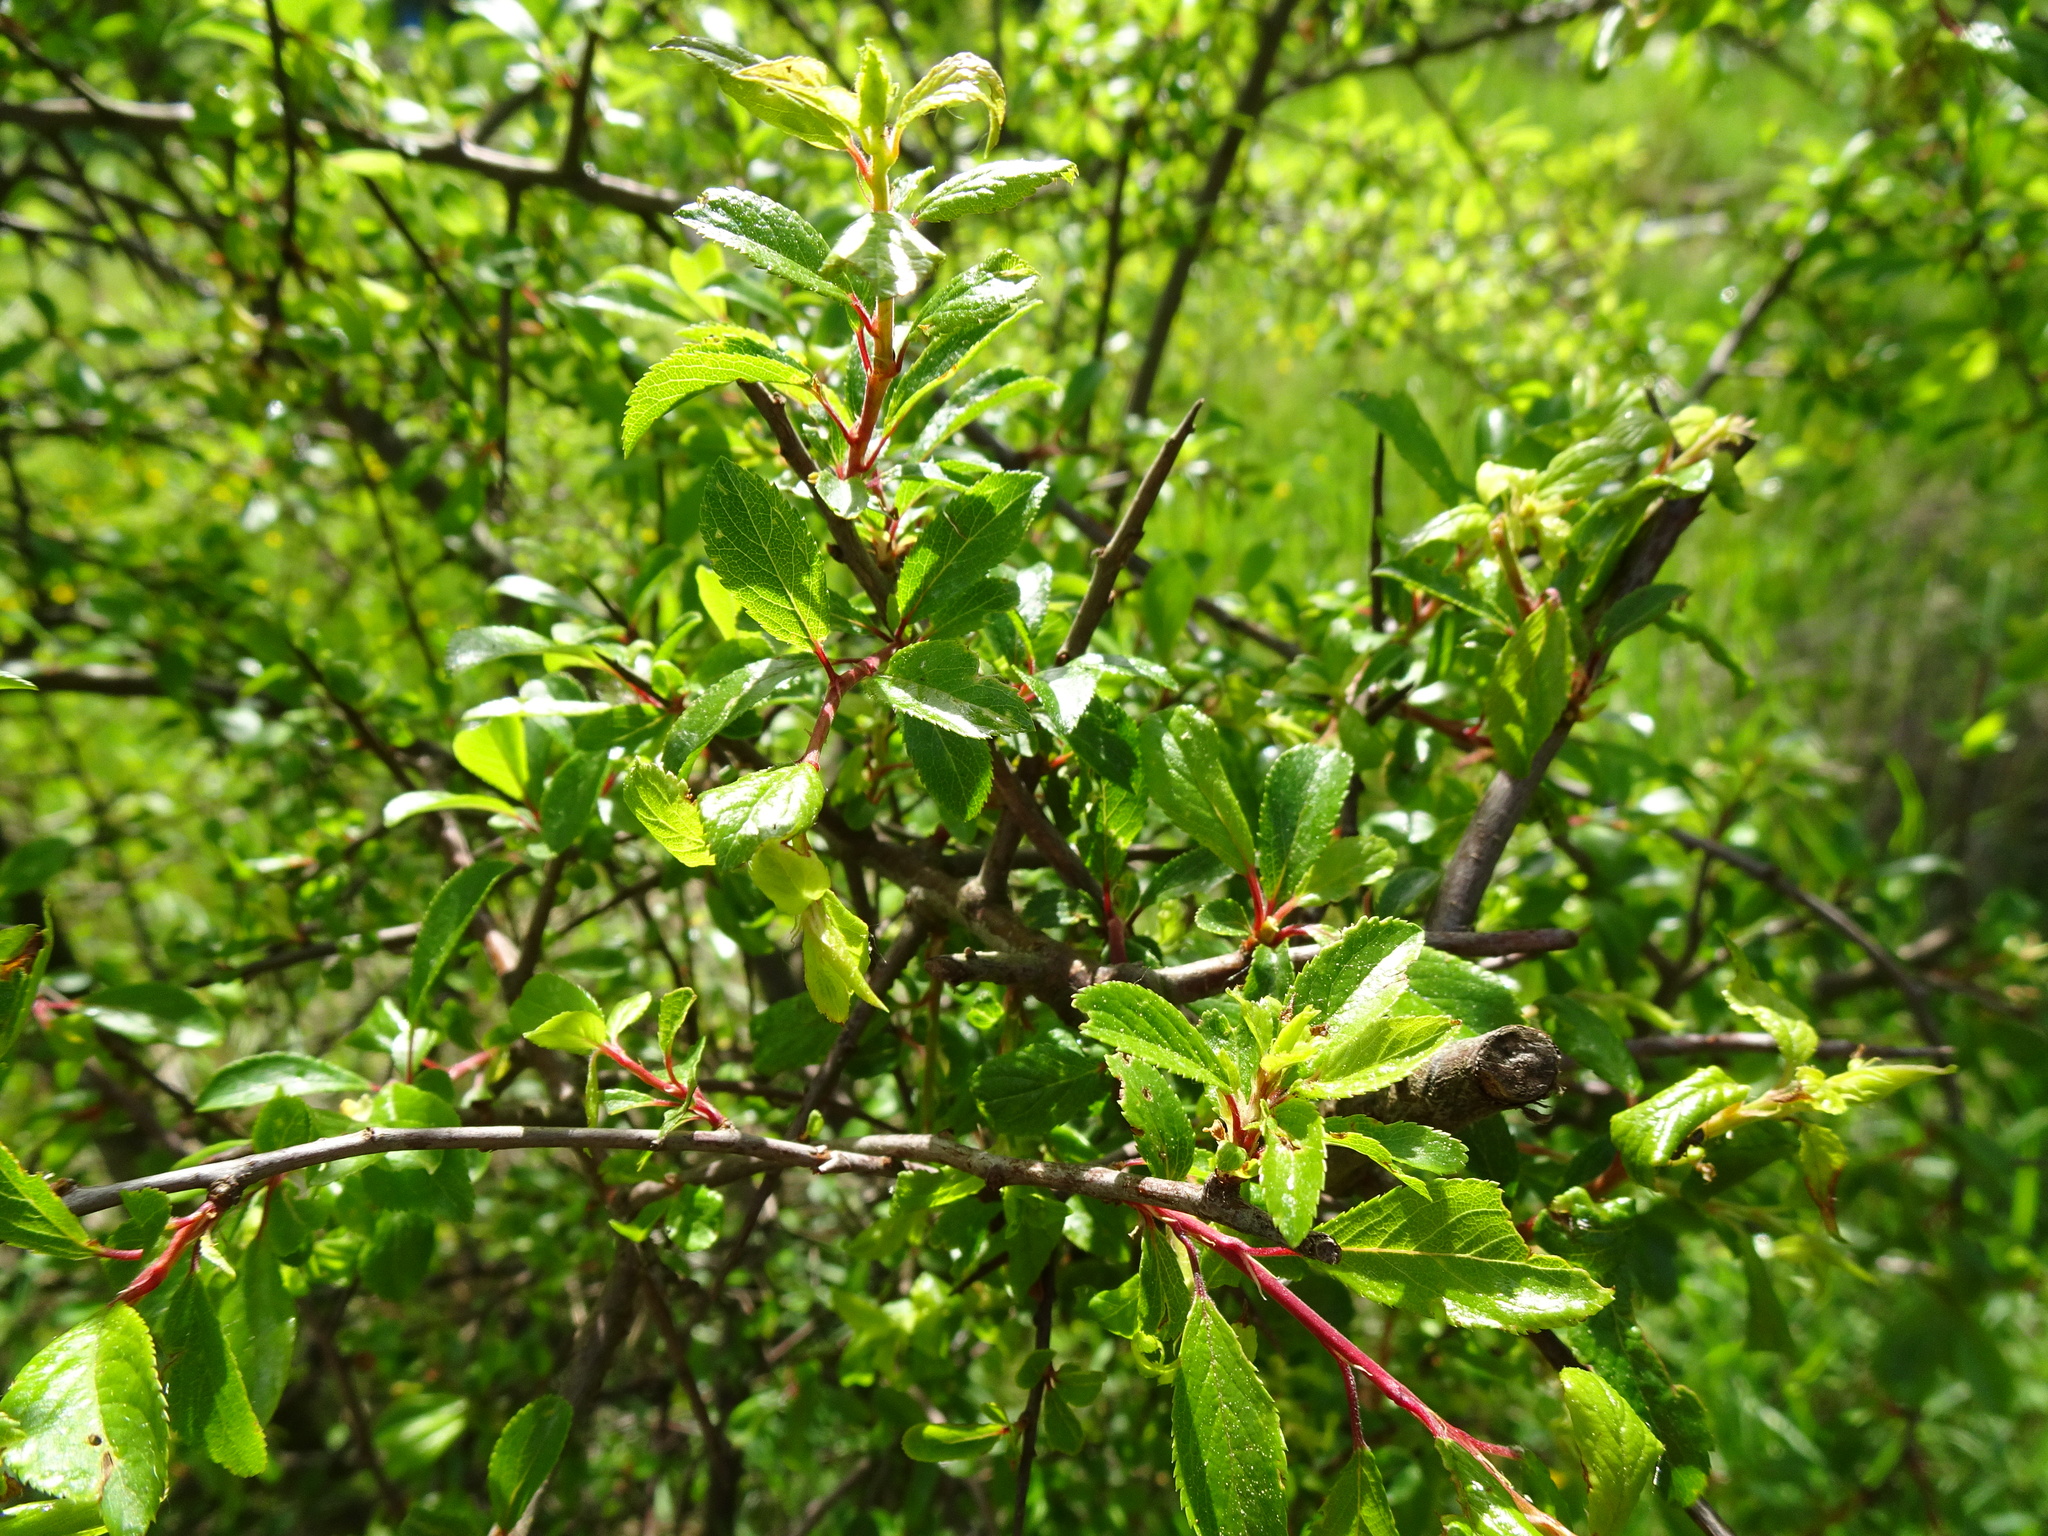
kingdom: Plantae
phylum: Tracheophyta
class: Magnoliopsida
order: Rosales
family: Rosaceae
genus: Prunus
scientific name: Prunus spinosa
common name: Blackthorn
